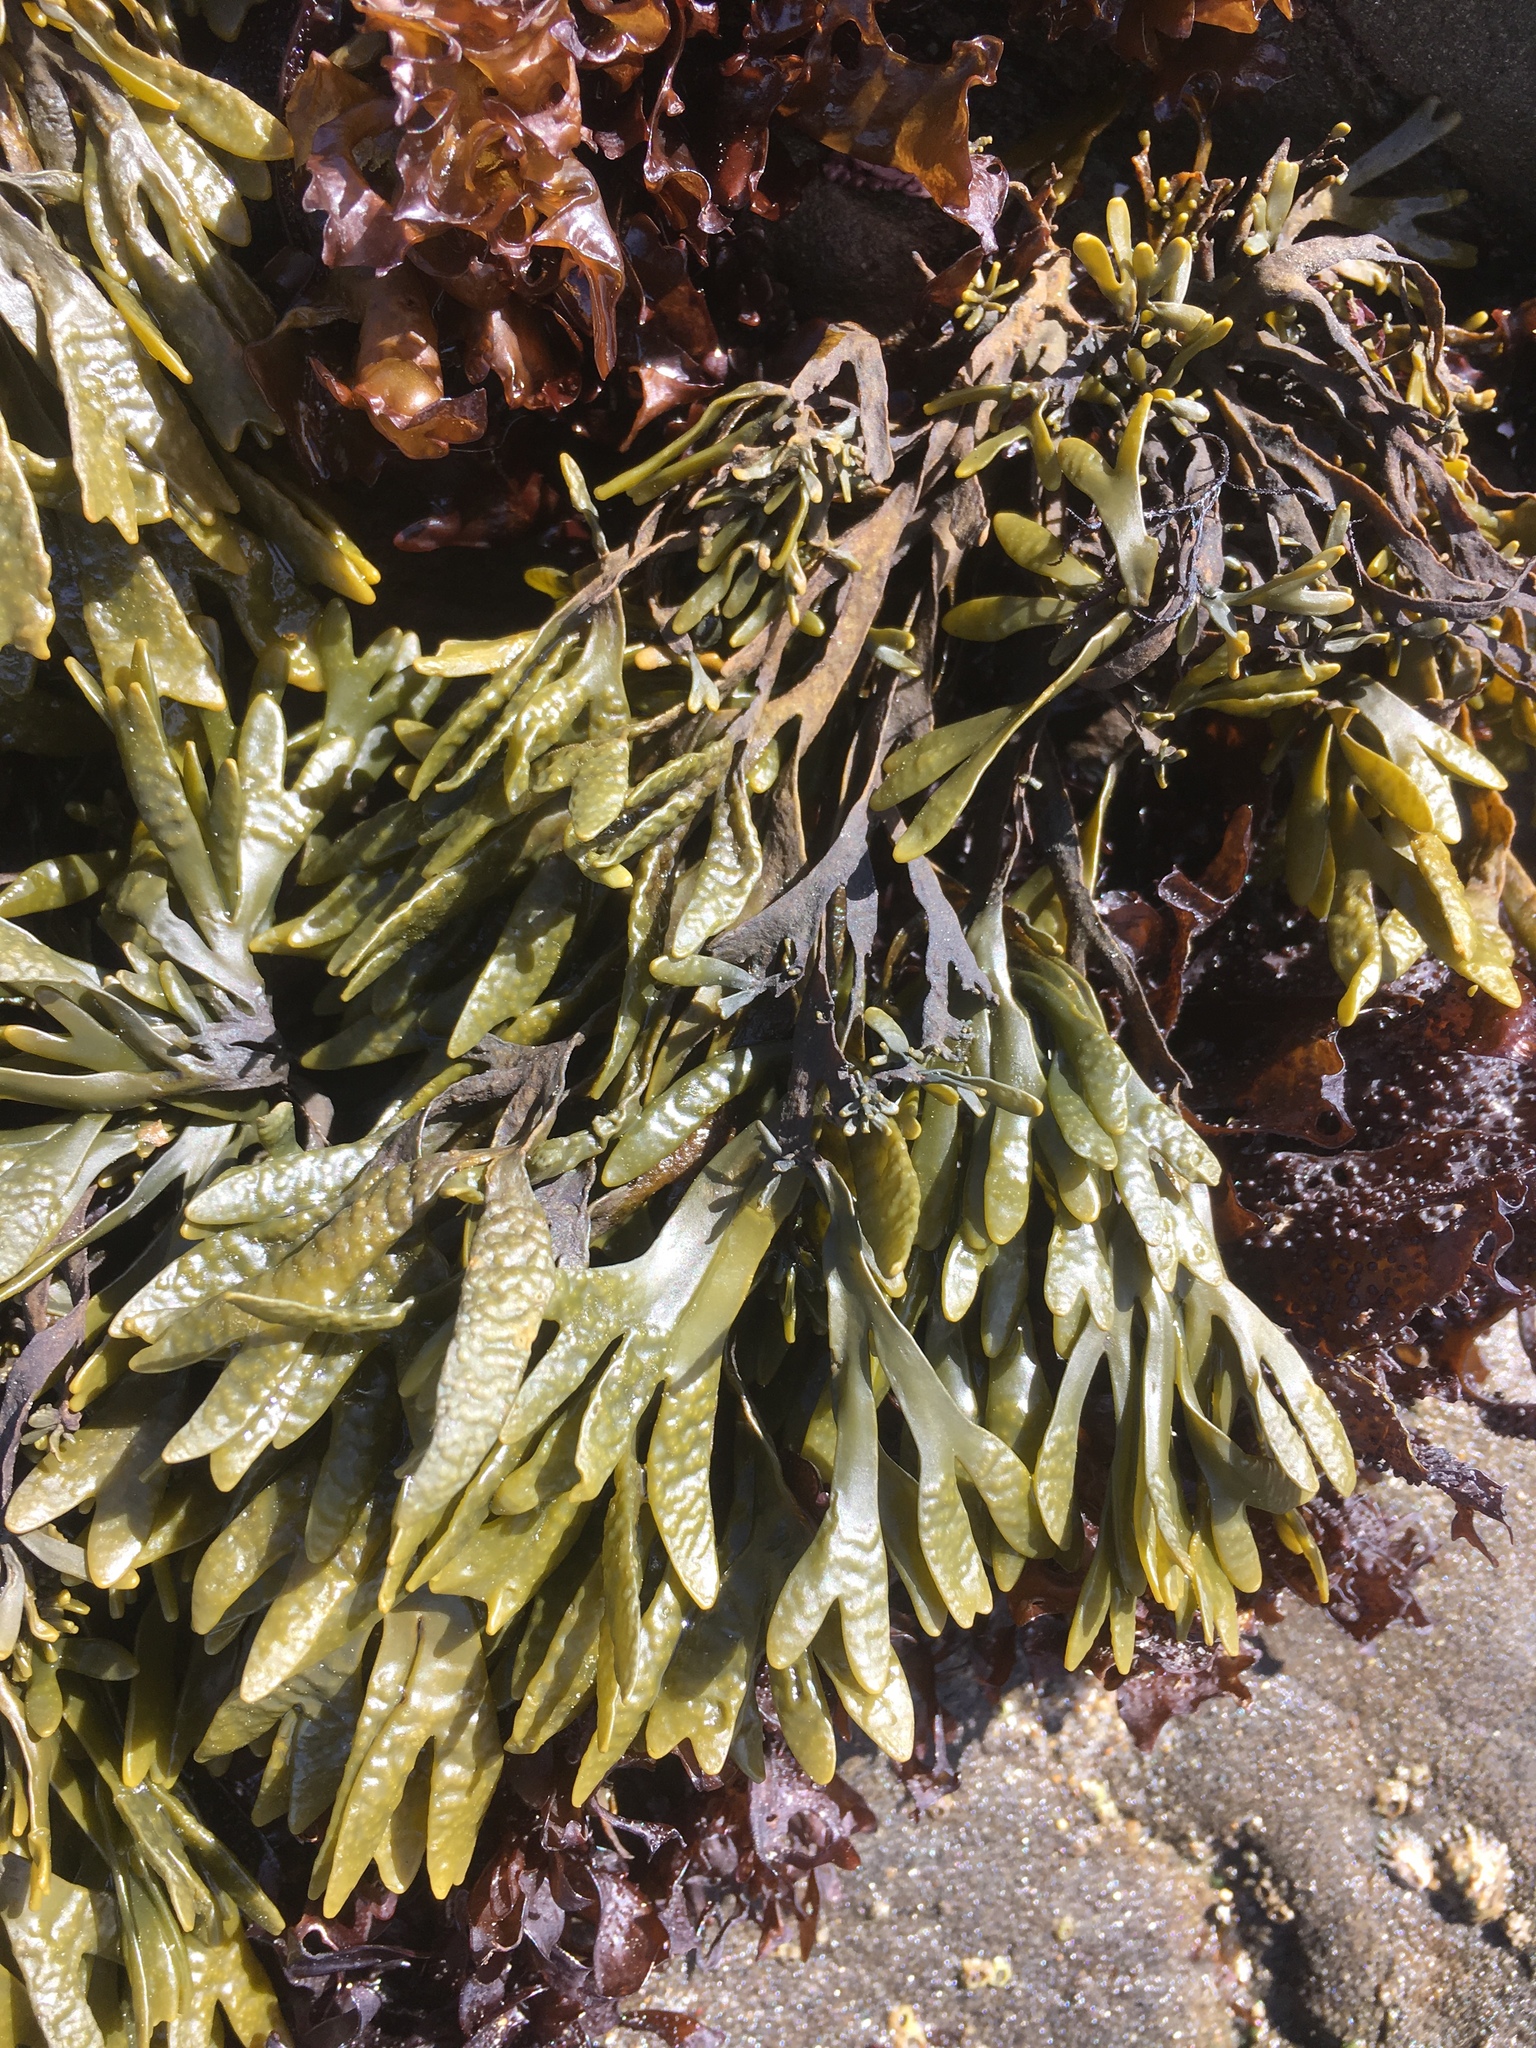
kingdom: Chromista
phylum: Ochrophyta
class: Phaeophyceae
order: Fucales
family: Fucaceae
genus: Pelvetiopsis
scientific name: Pelvetiopsis limitata
